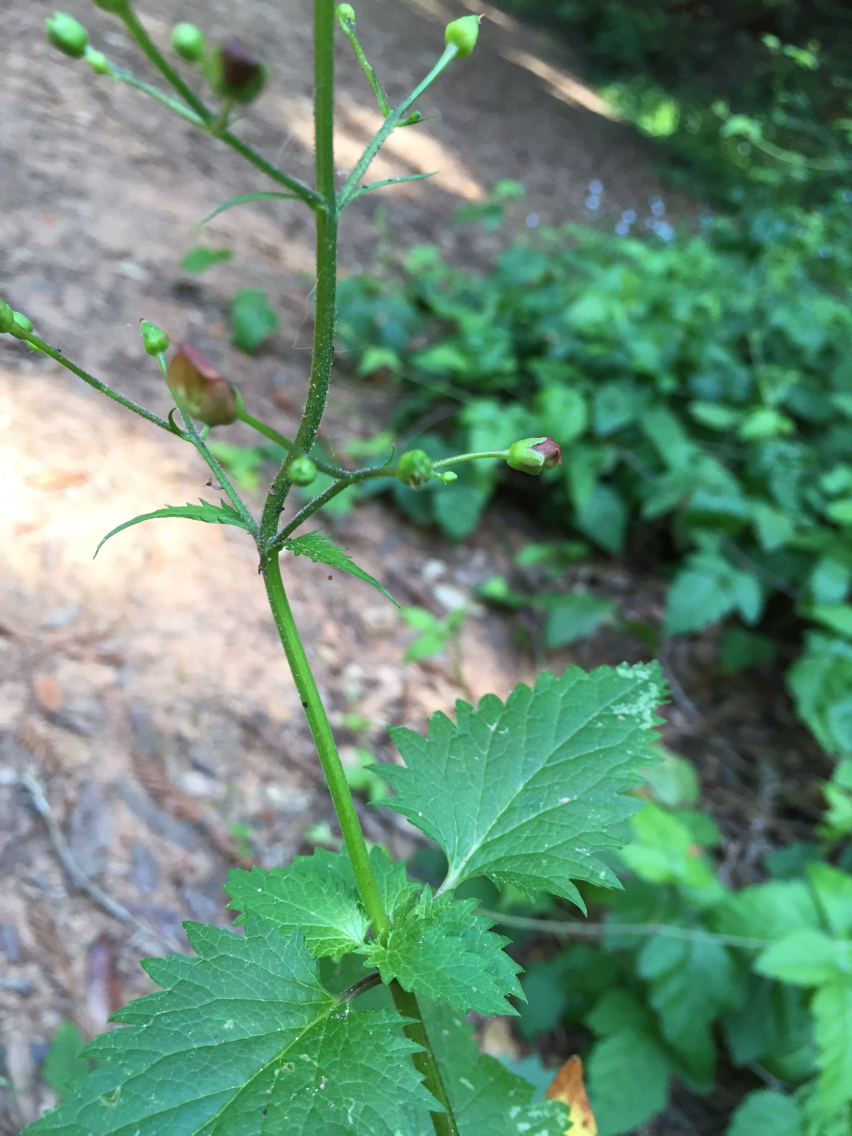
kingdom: Plantae
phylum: Tracheophyta
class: Magnoliopsida
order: Lamiales
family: Scrophulariaceae
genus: Scrophularia
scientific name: Scrophularia californica
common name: California figwort
